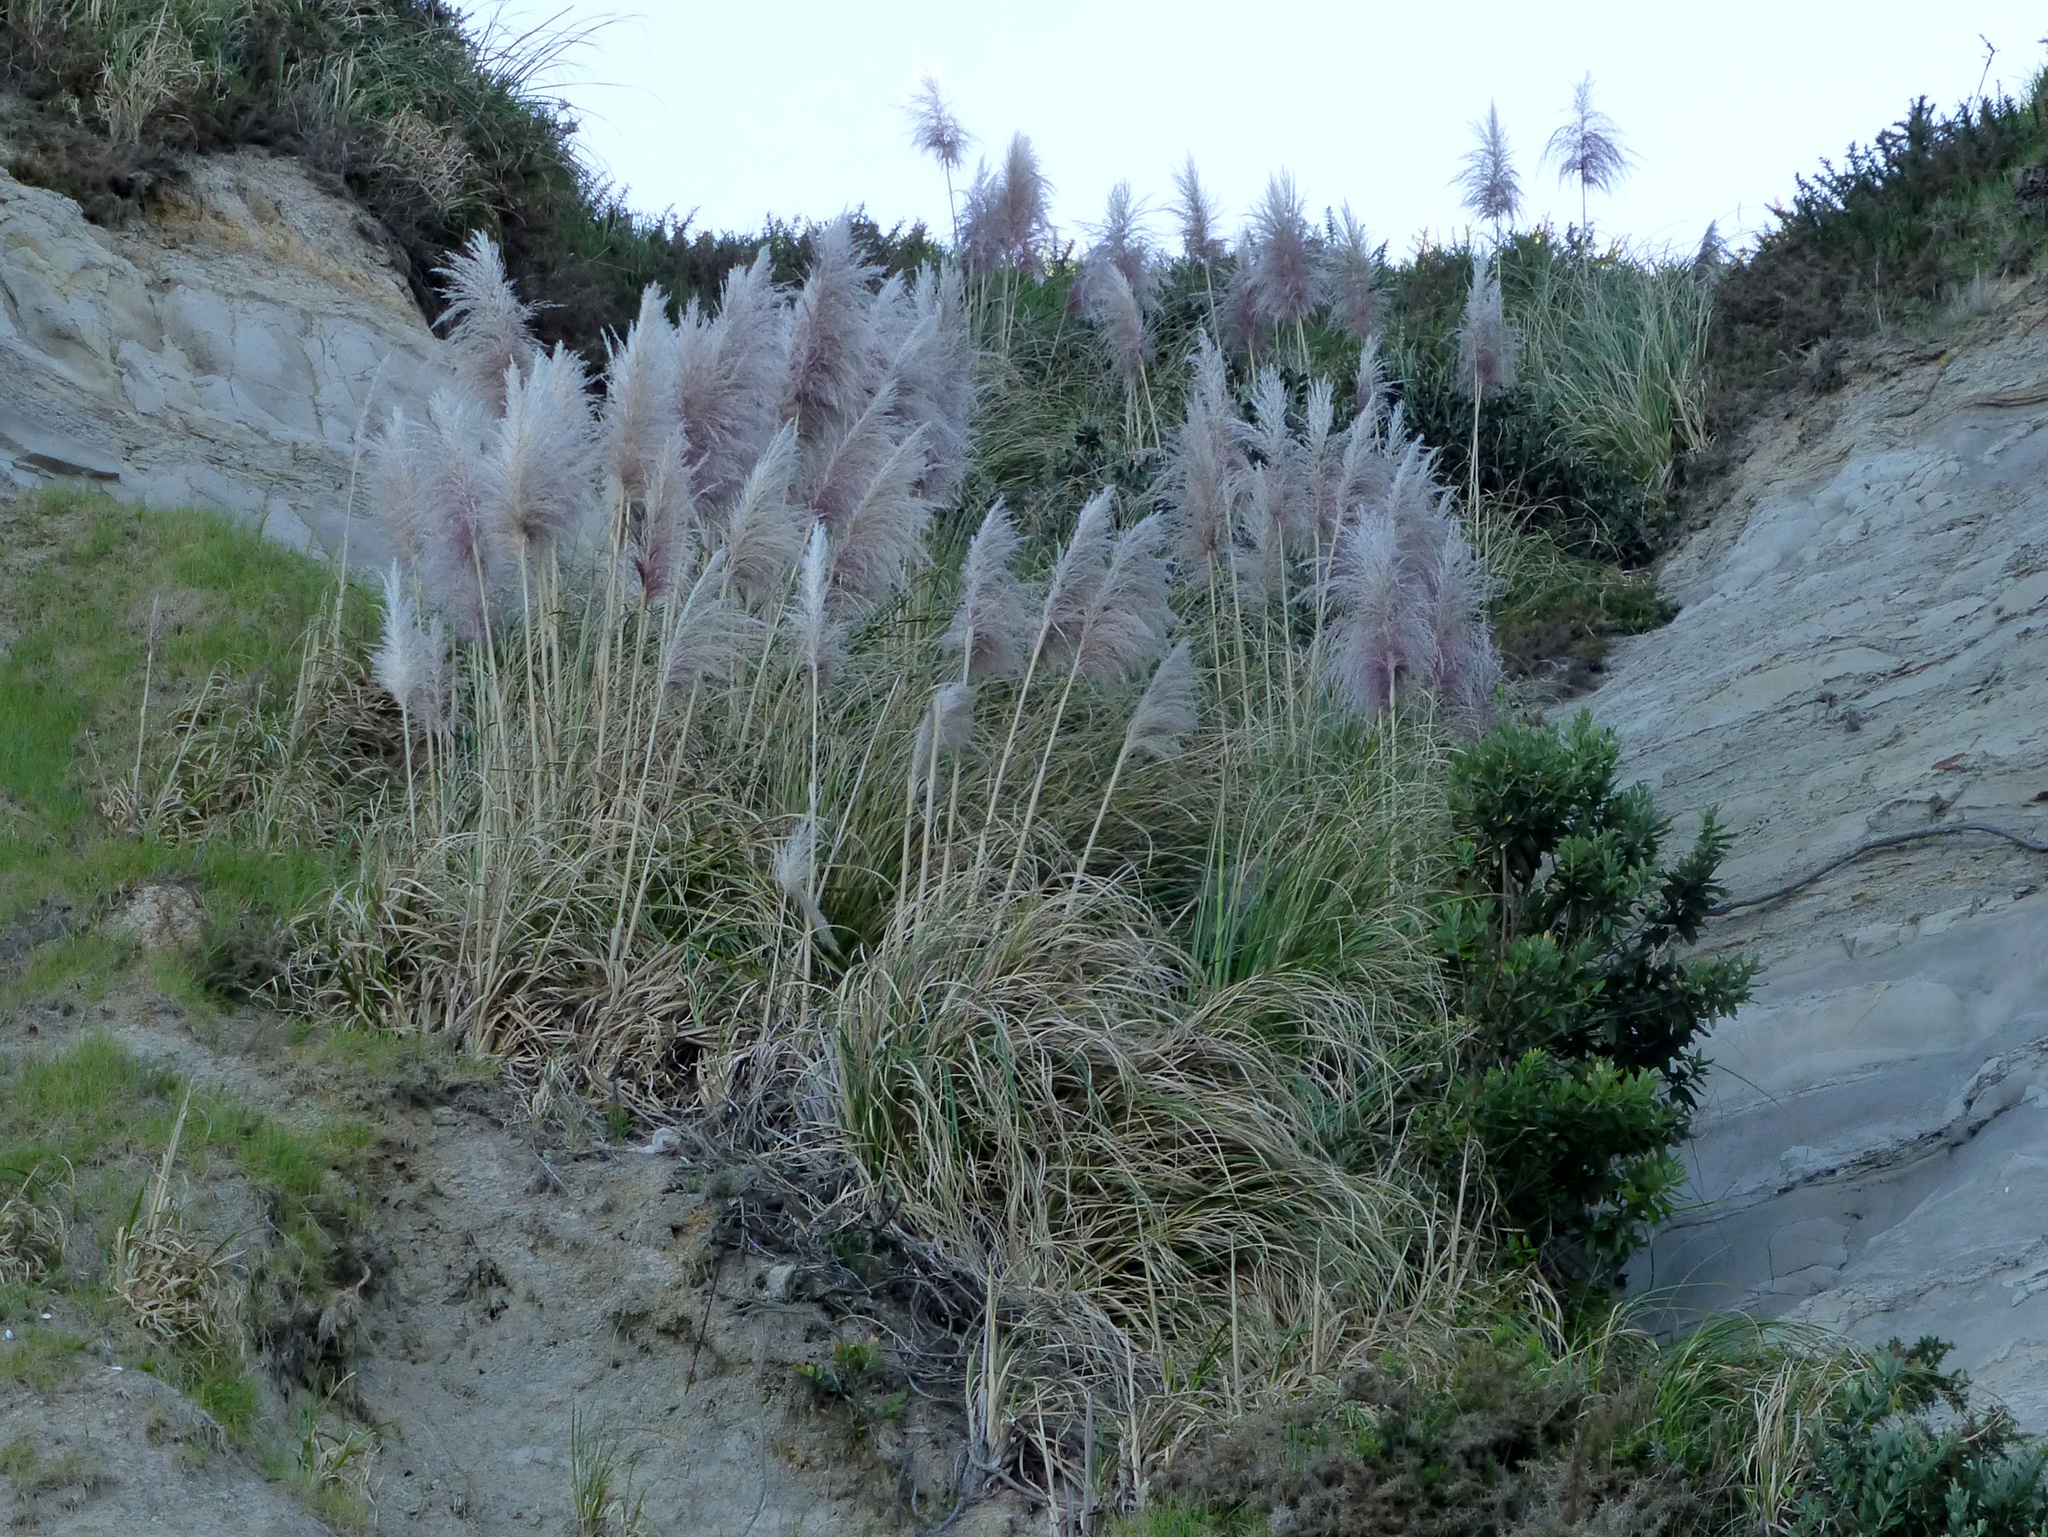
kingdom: Plantae
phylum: Tracheophyta
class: Liliopsida
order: Poales
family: Poaceae
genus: Cortaderia
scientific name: Cortaderia jubata
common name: Purple pampas grass
